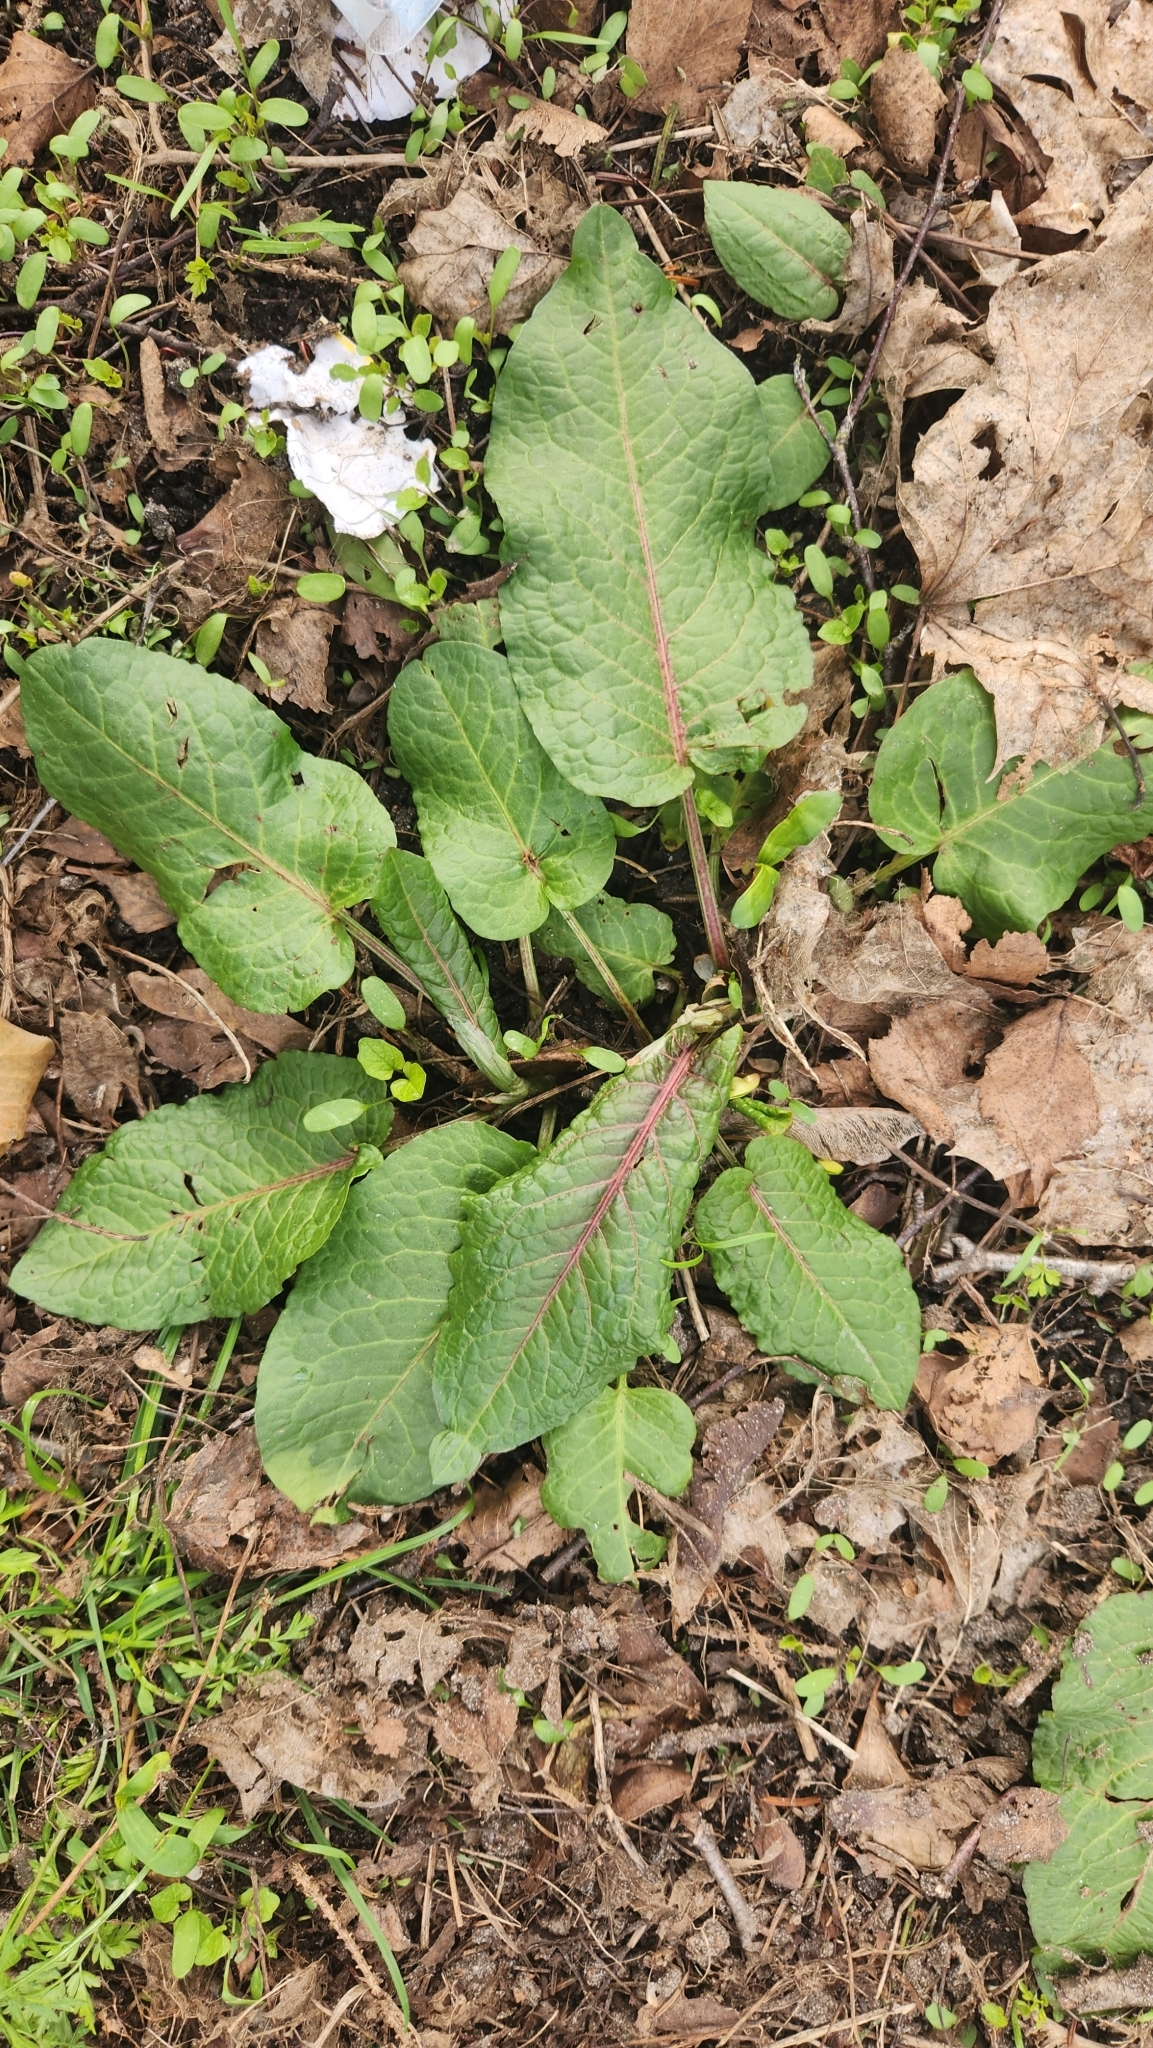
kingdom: Plantae
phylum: Tracheophyta
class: Magnoliopsida
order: Caryophyllales
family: Polygonaceae
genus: Rumex
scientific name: Rumex obtusifolius
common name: Bitter dock
